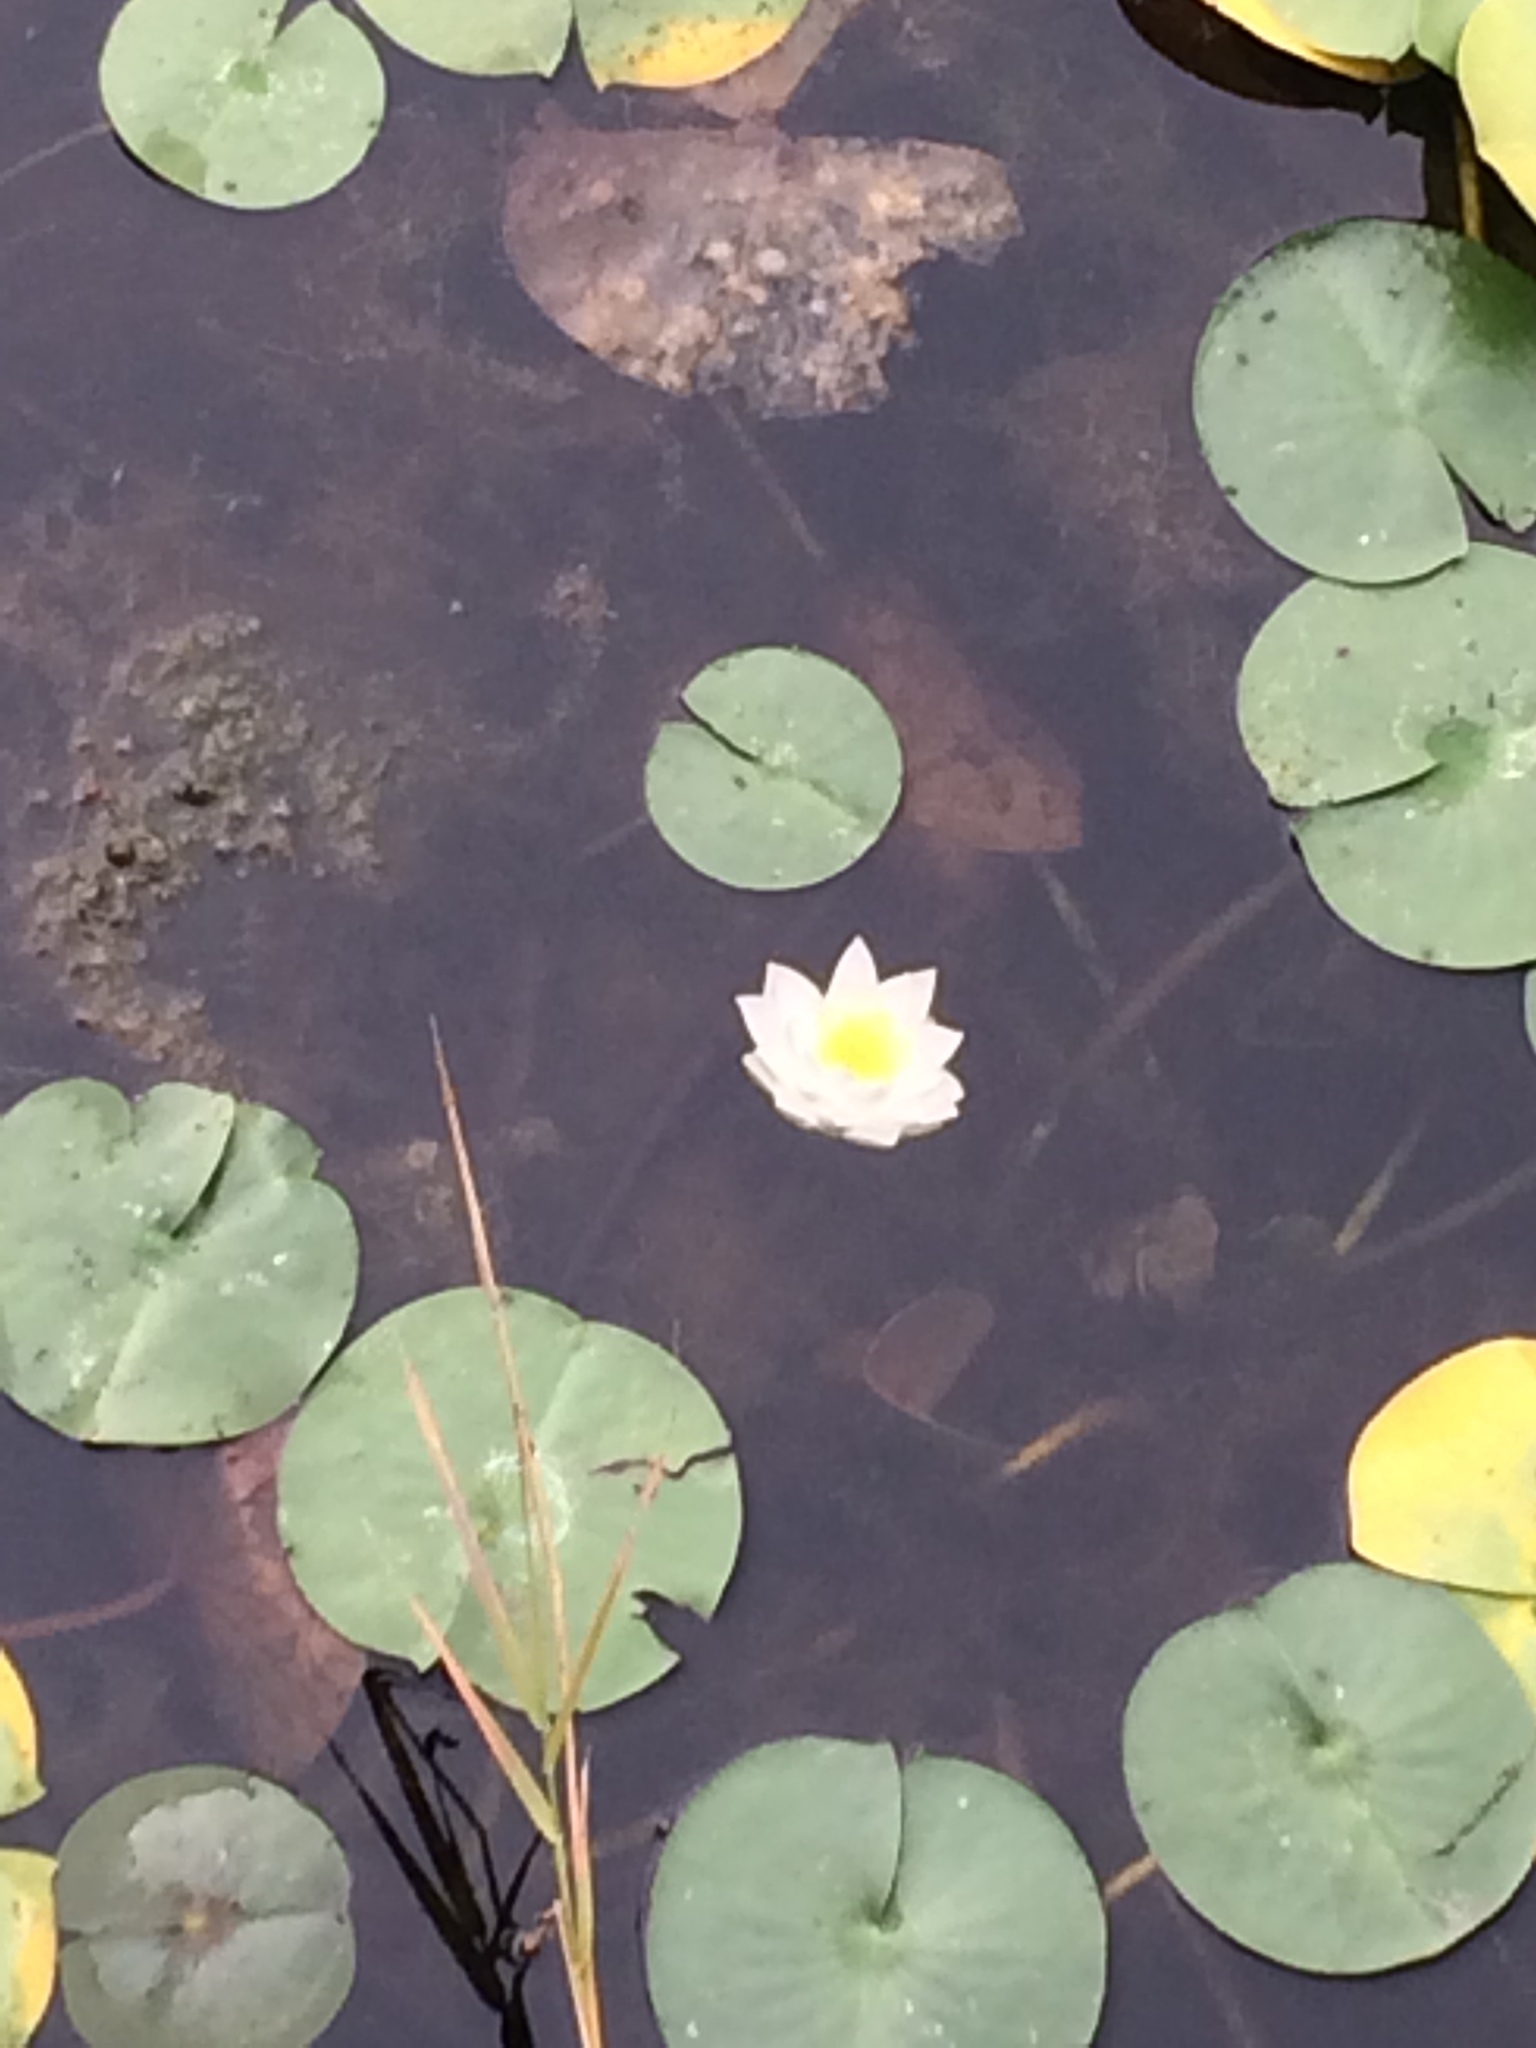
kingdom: Plantae
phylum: Tracheophyta
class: Magnoliopsida
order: Nymphaeales
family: Nymphaeaceae
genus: Nymphaea
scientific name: Nymphaea odorata
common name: Fragrant water-lily
